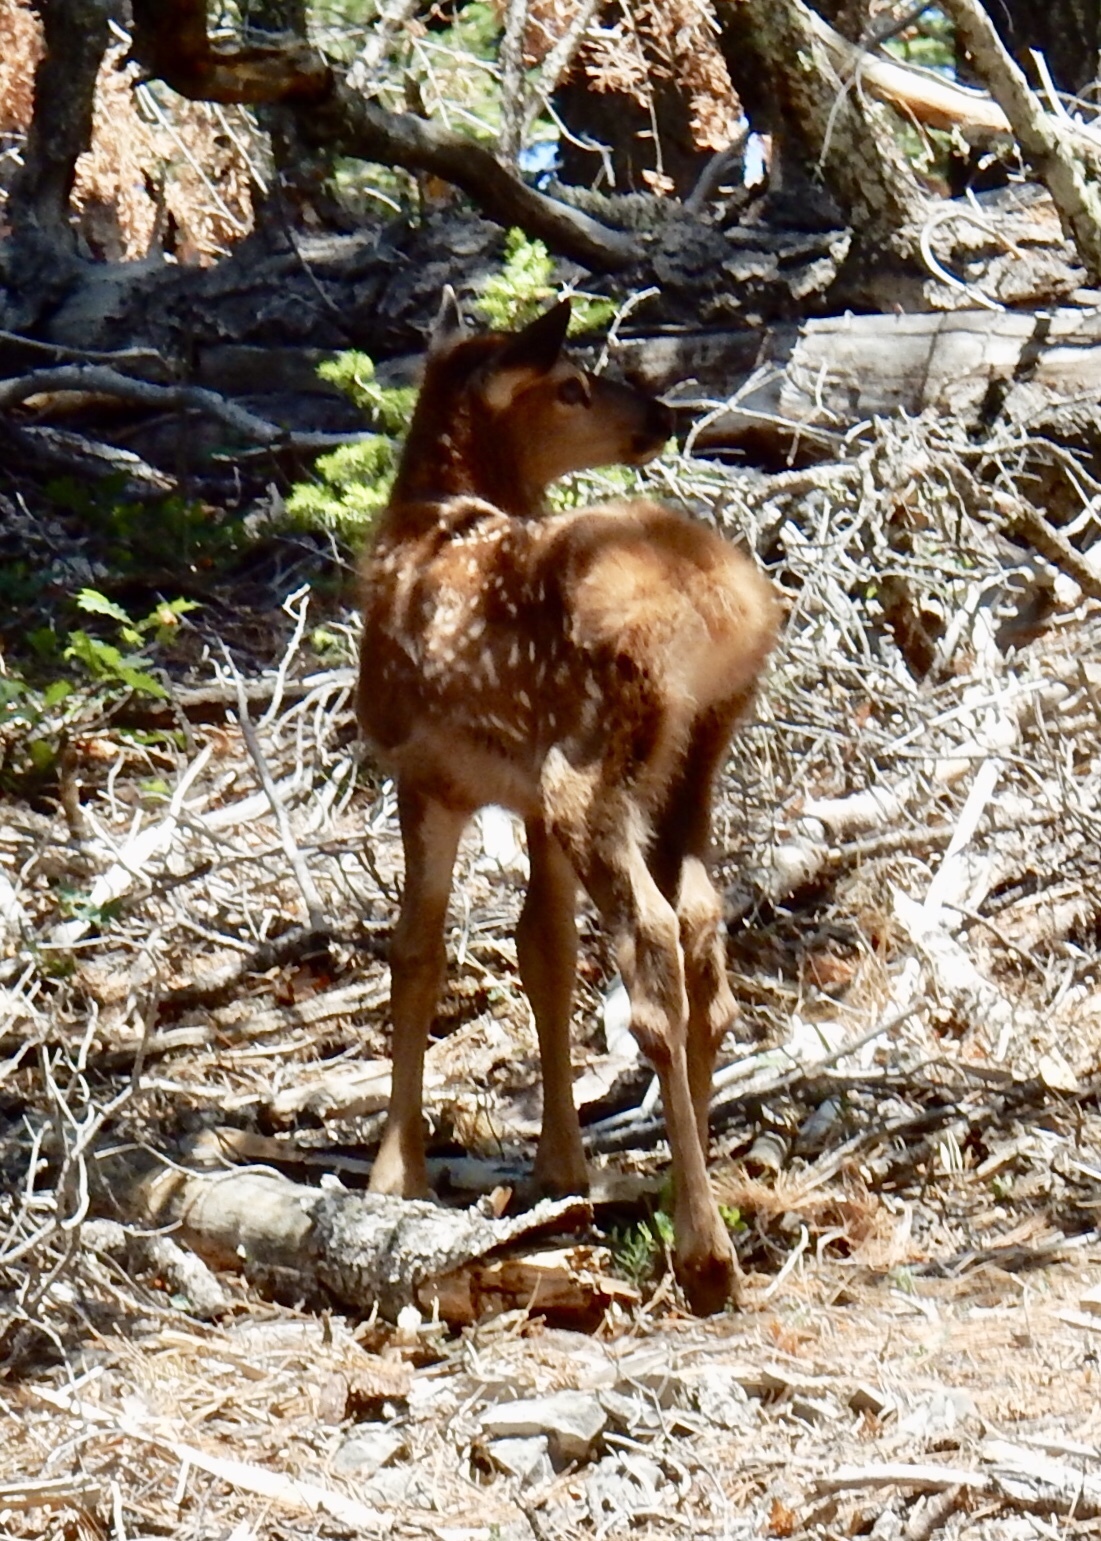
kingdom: Animalia
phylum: Chordata
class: Mammalia
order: Artiodactyla
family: Cervidae
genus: Cervus
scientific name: Cervus elaphus
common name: Red deer
